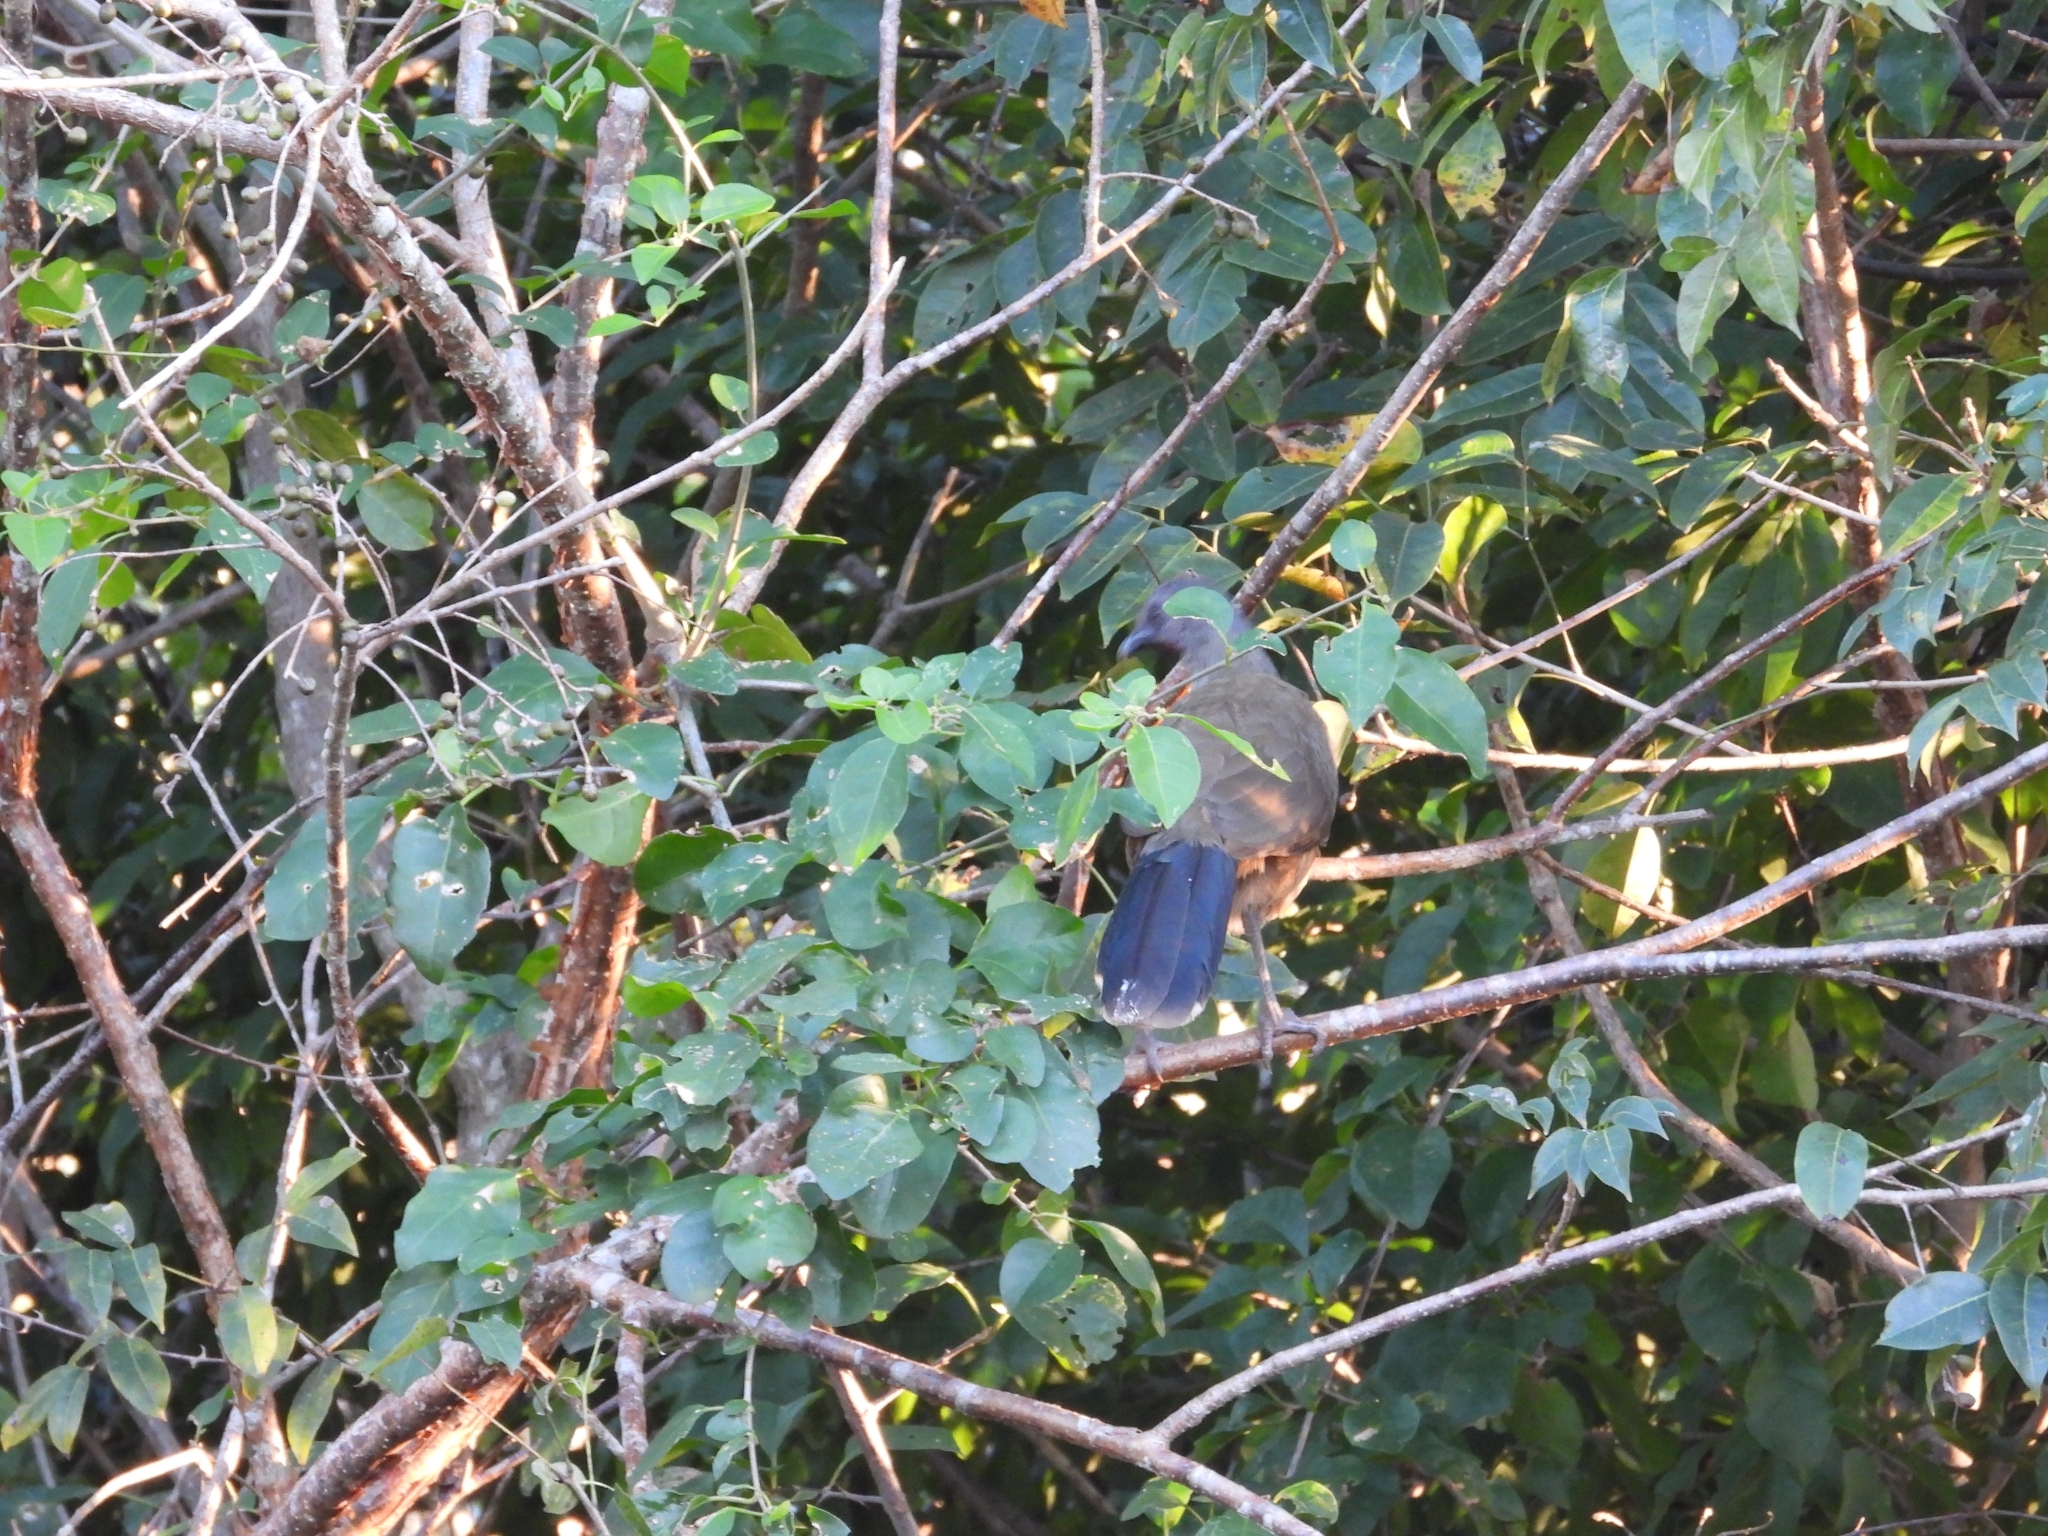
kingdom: Animalia
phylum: Chordata
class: Aves
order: Galliformes
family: Cracidae
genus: Ortalis
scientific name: Ortalis vetula
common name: Plain chachalaca
